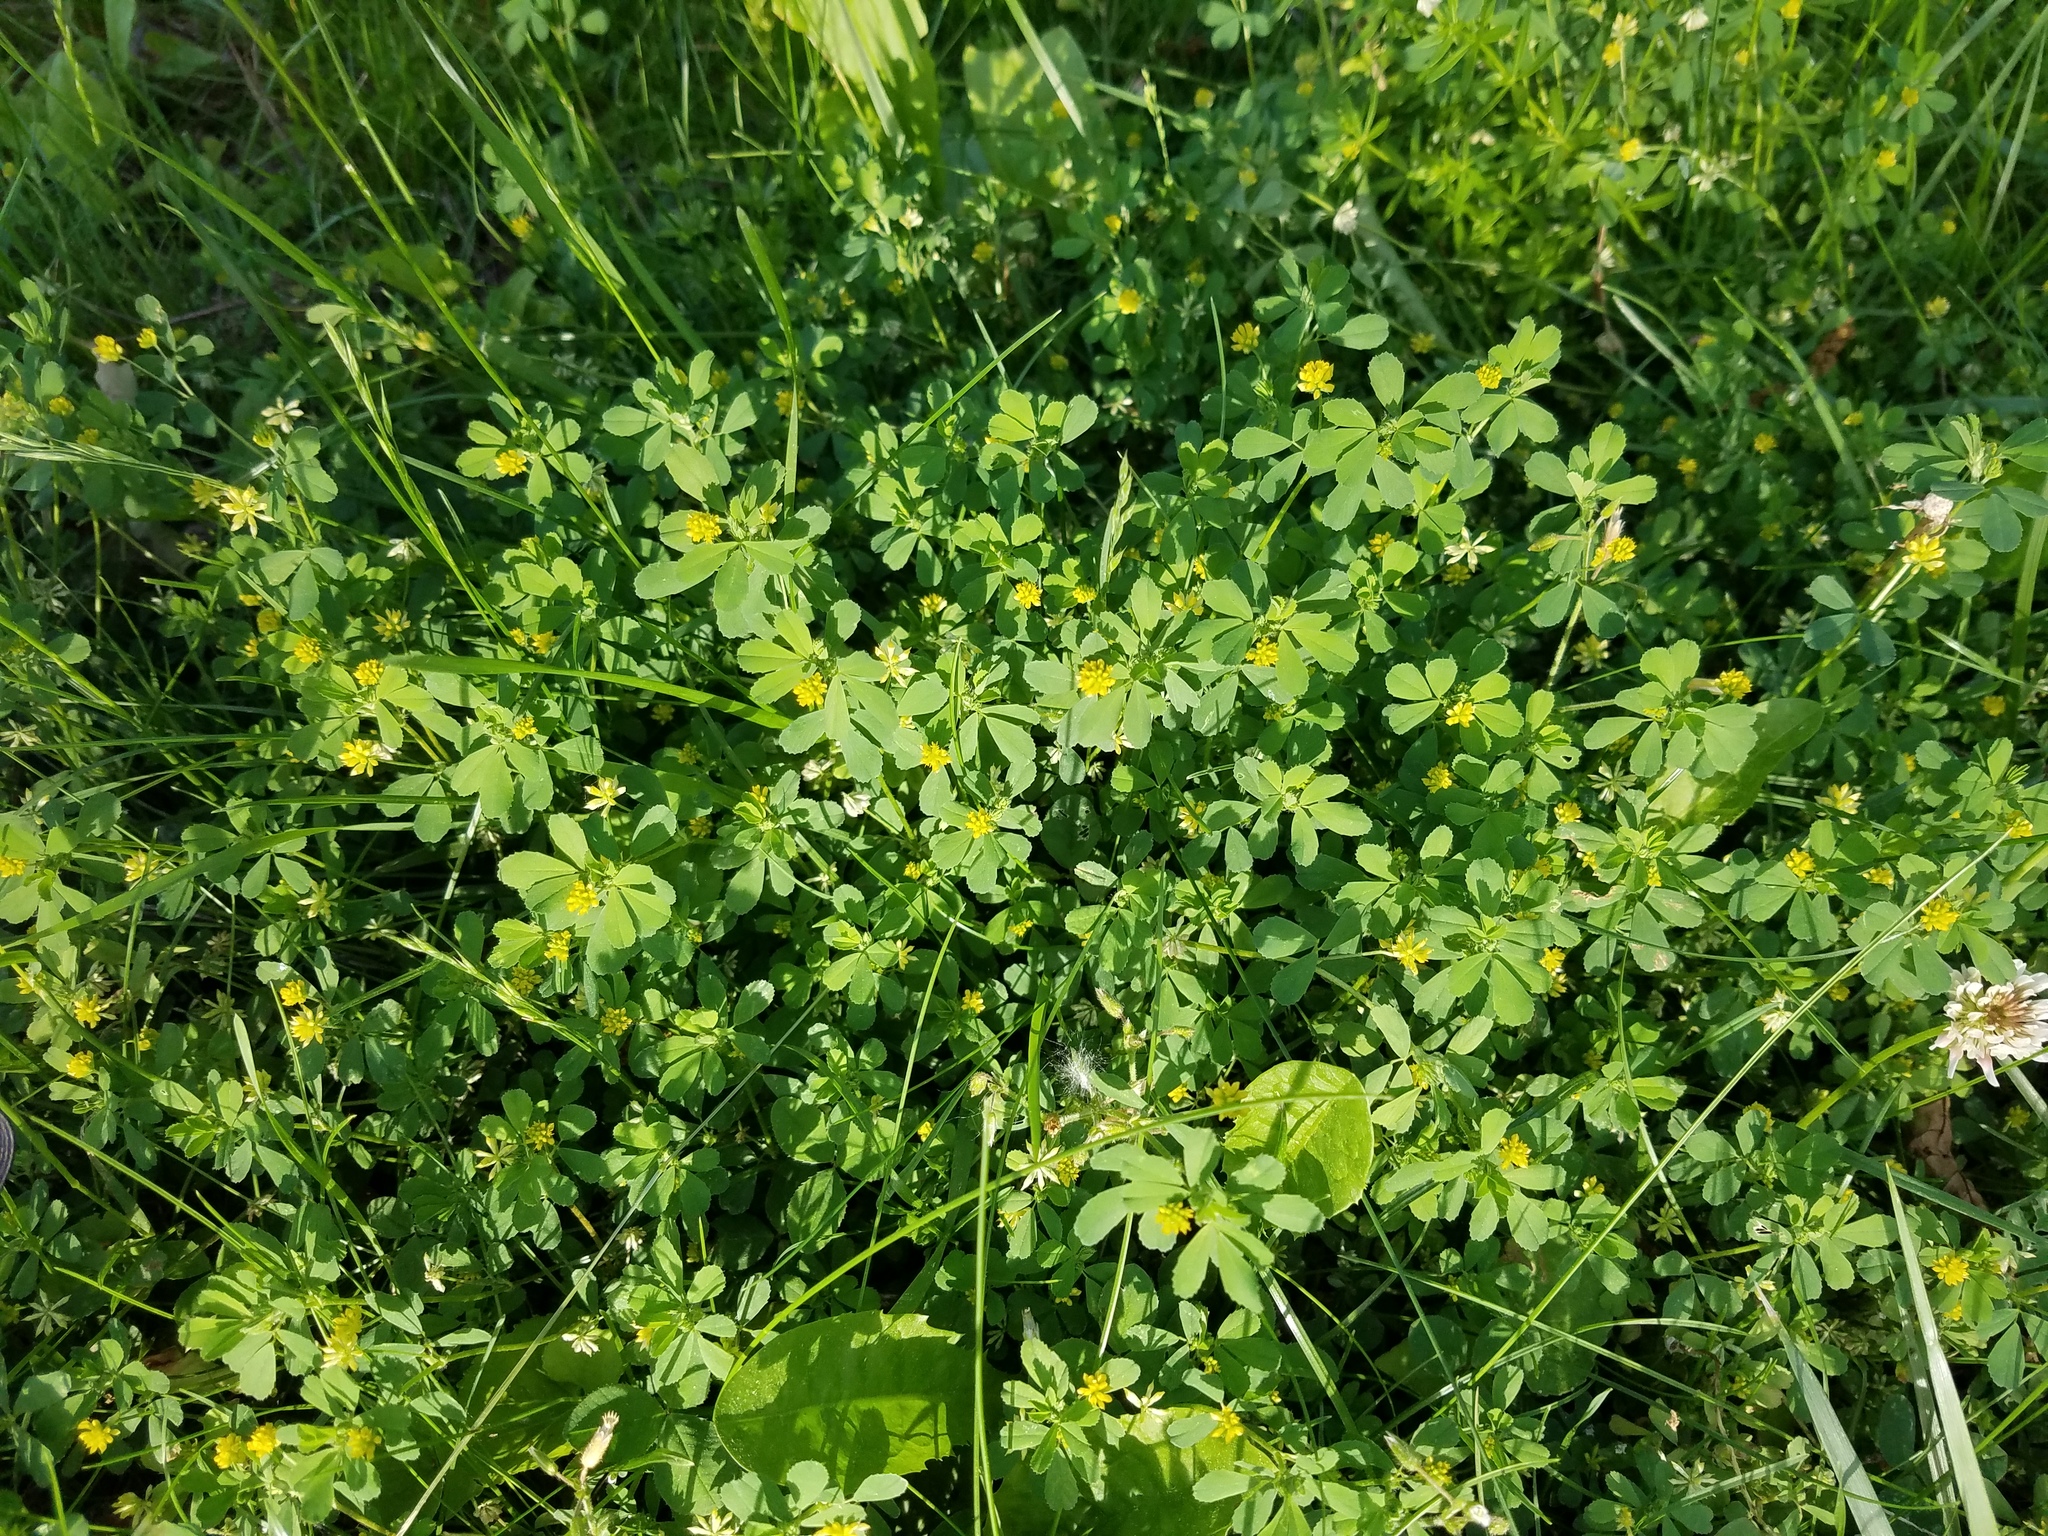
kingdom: Plantae
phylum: Tracheophyta
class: Magnoliopsida
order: Fabales
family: Fabaceae
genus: Trifolium
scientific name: Trifolium dubium
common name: Suckling clover
